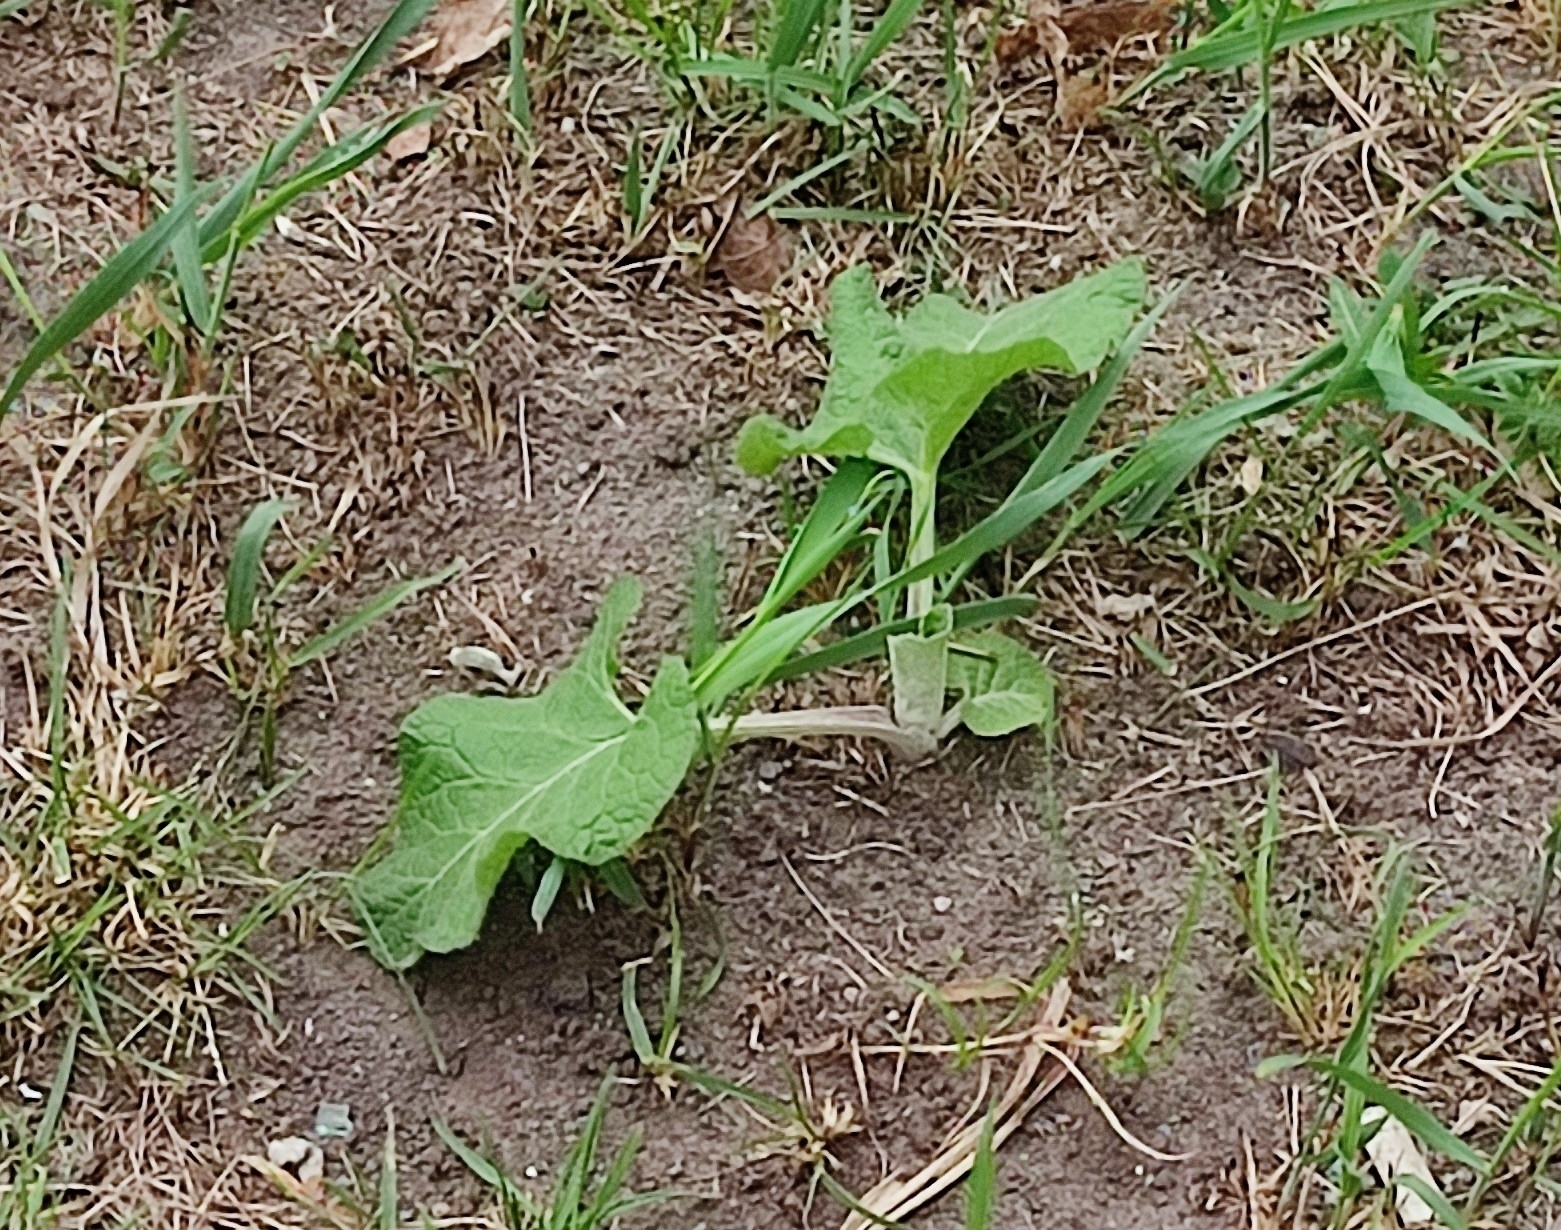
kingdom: Plantae
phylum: Tracheophyta
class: Magnoliopsida
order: Asterales
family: Asteraceae
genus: Arctium
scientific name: Arctium tomentosum
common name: Woolly burdock
